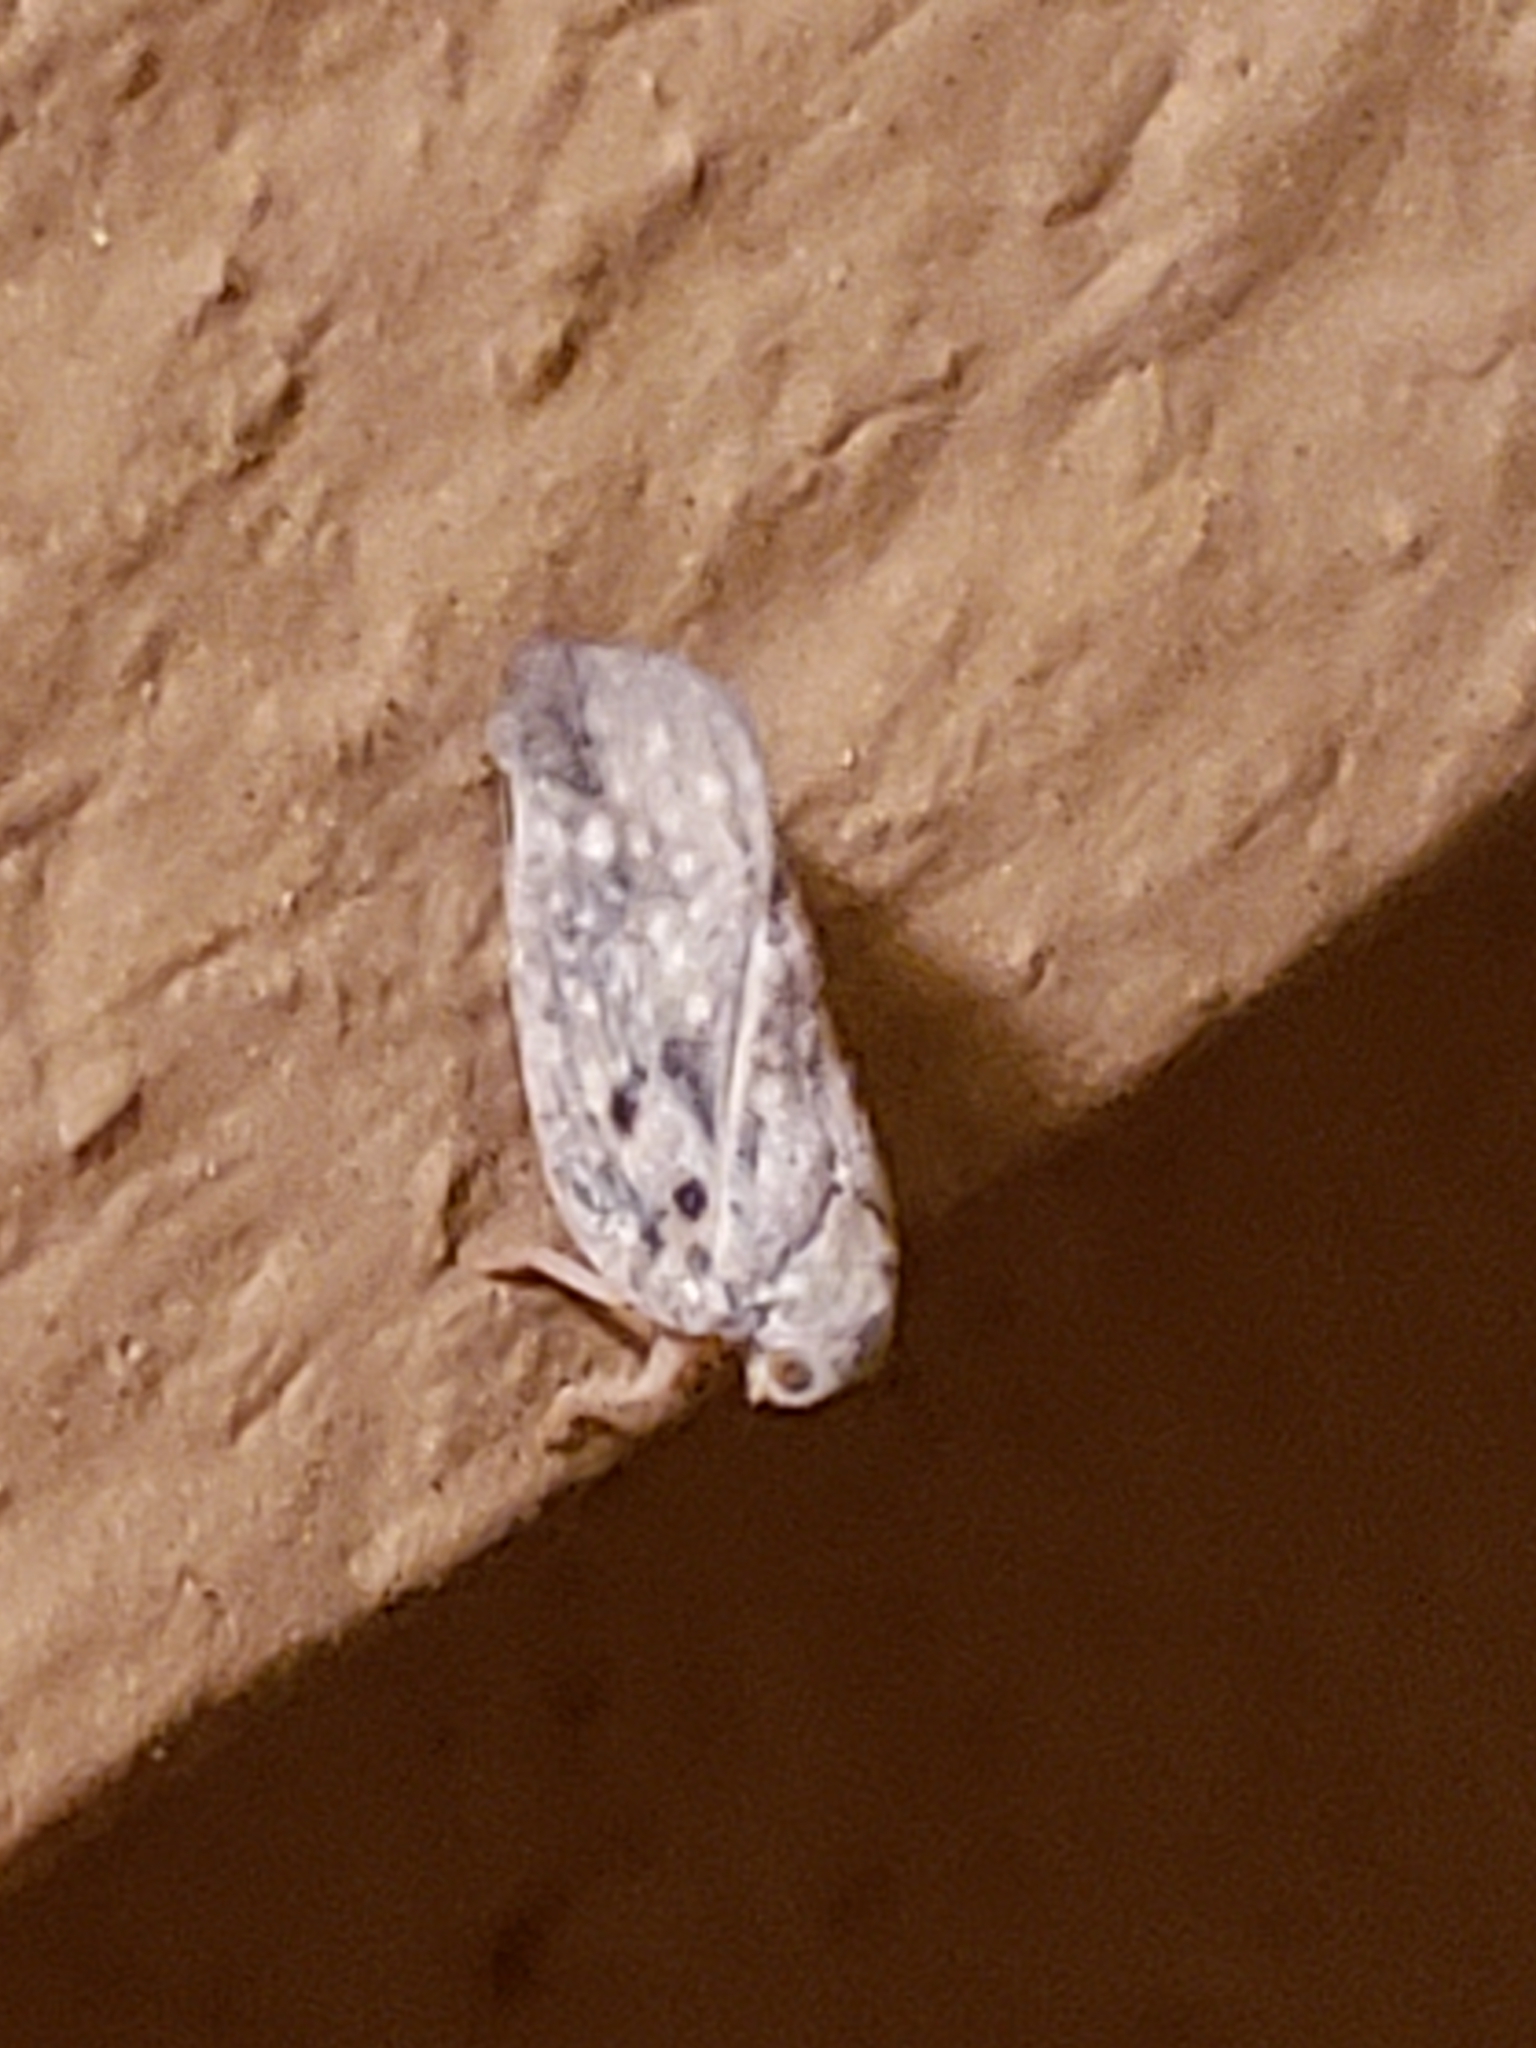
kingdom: Animalia
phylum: Arthropoda
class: Insecta
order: Hemiptera
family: Flatidae
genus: Metcalfa
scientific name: Metcalfa pruinosa
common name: Citrus flatid planthopper
